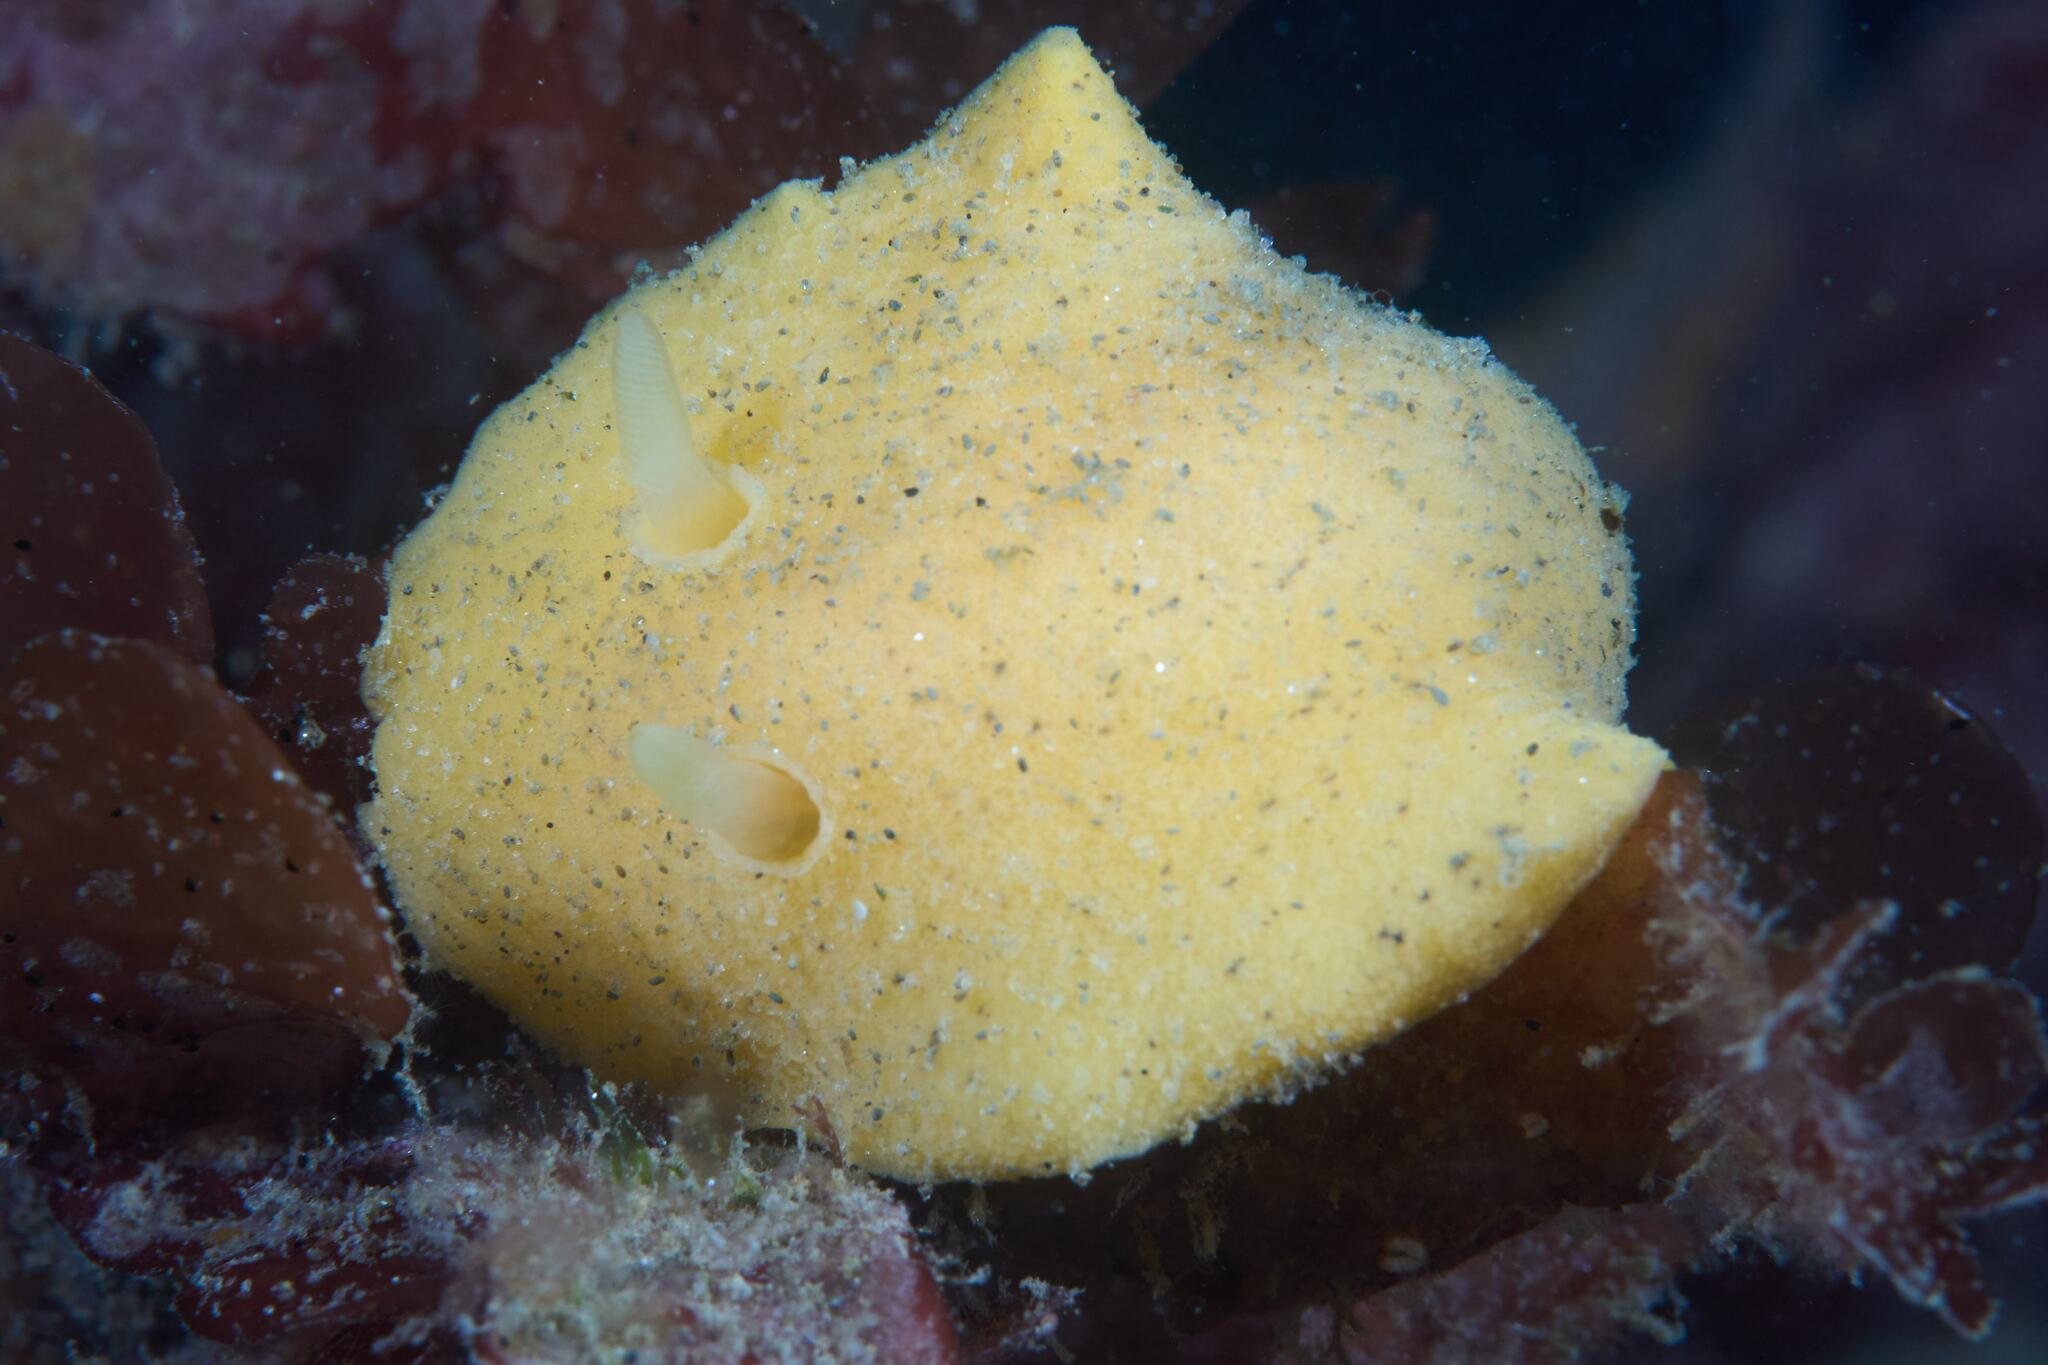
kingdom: Animalia
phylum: Mollusca
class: Gastropoda
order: Nudibranchia
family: Dorididae
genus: Doriopsis
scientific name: Doriopsis granulosa
